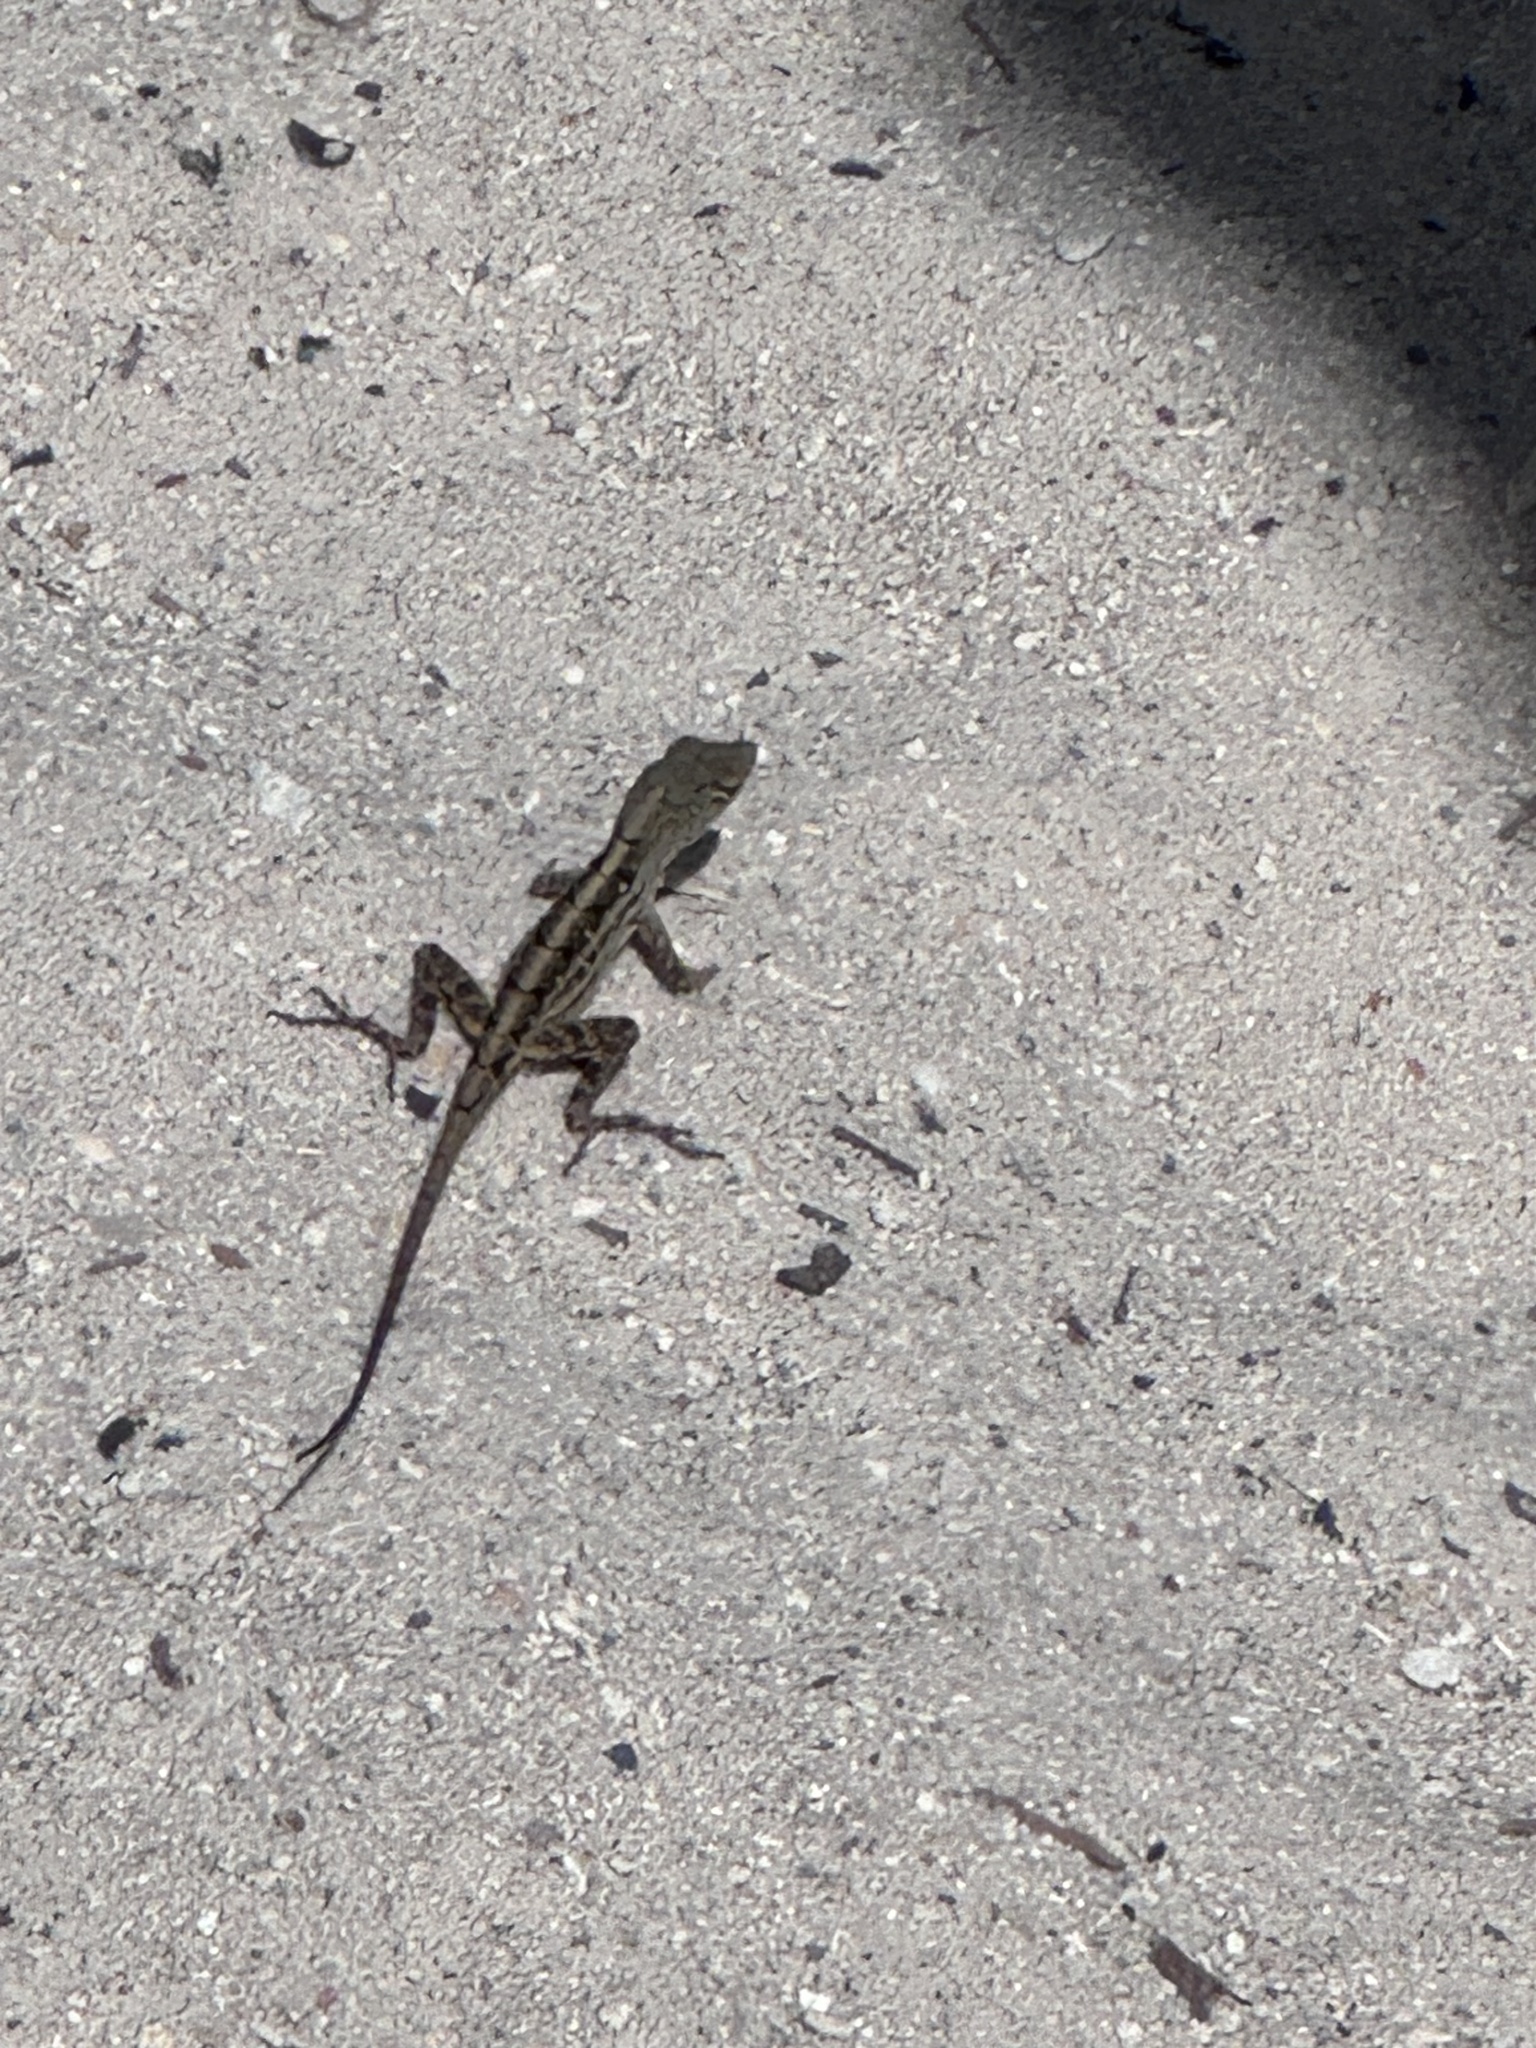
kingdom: Animalia
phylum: Chordata
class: Squamata
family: Dactyloidae
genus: Anolis
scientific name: Anolis sagrei
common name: Brown anole
